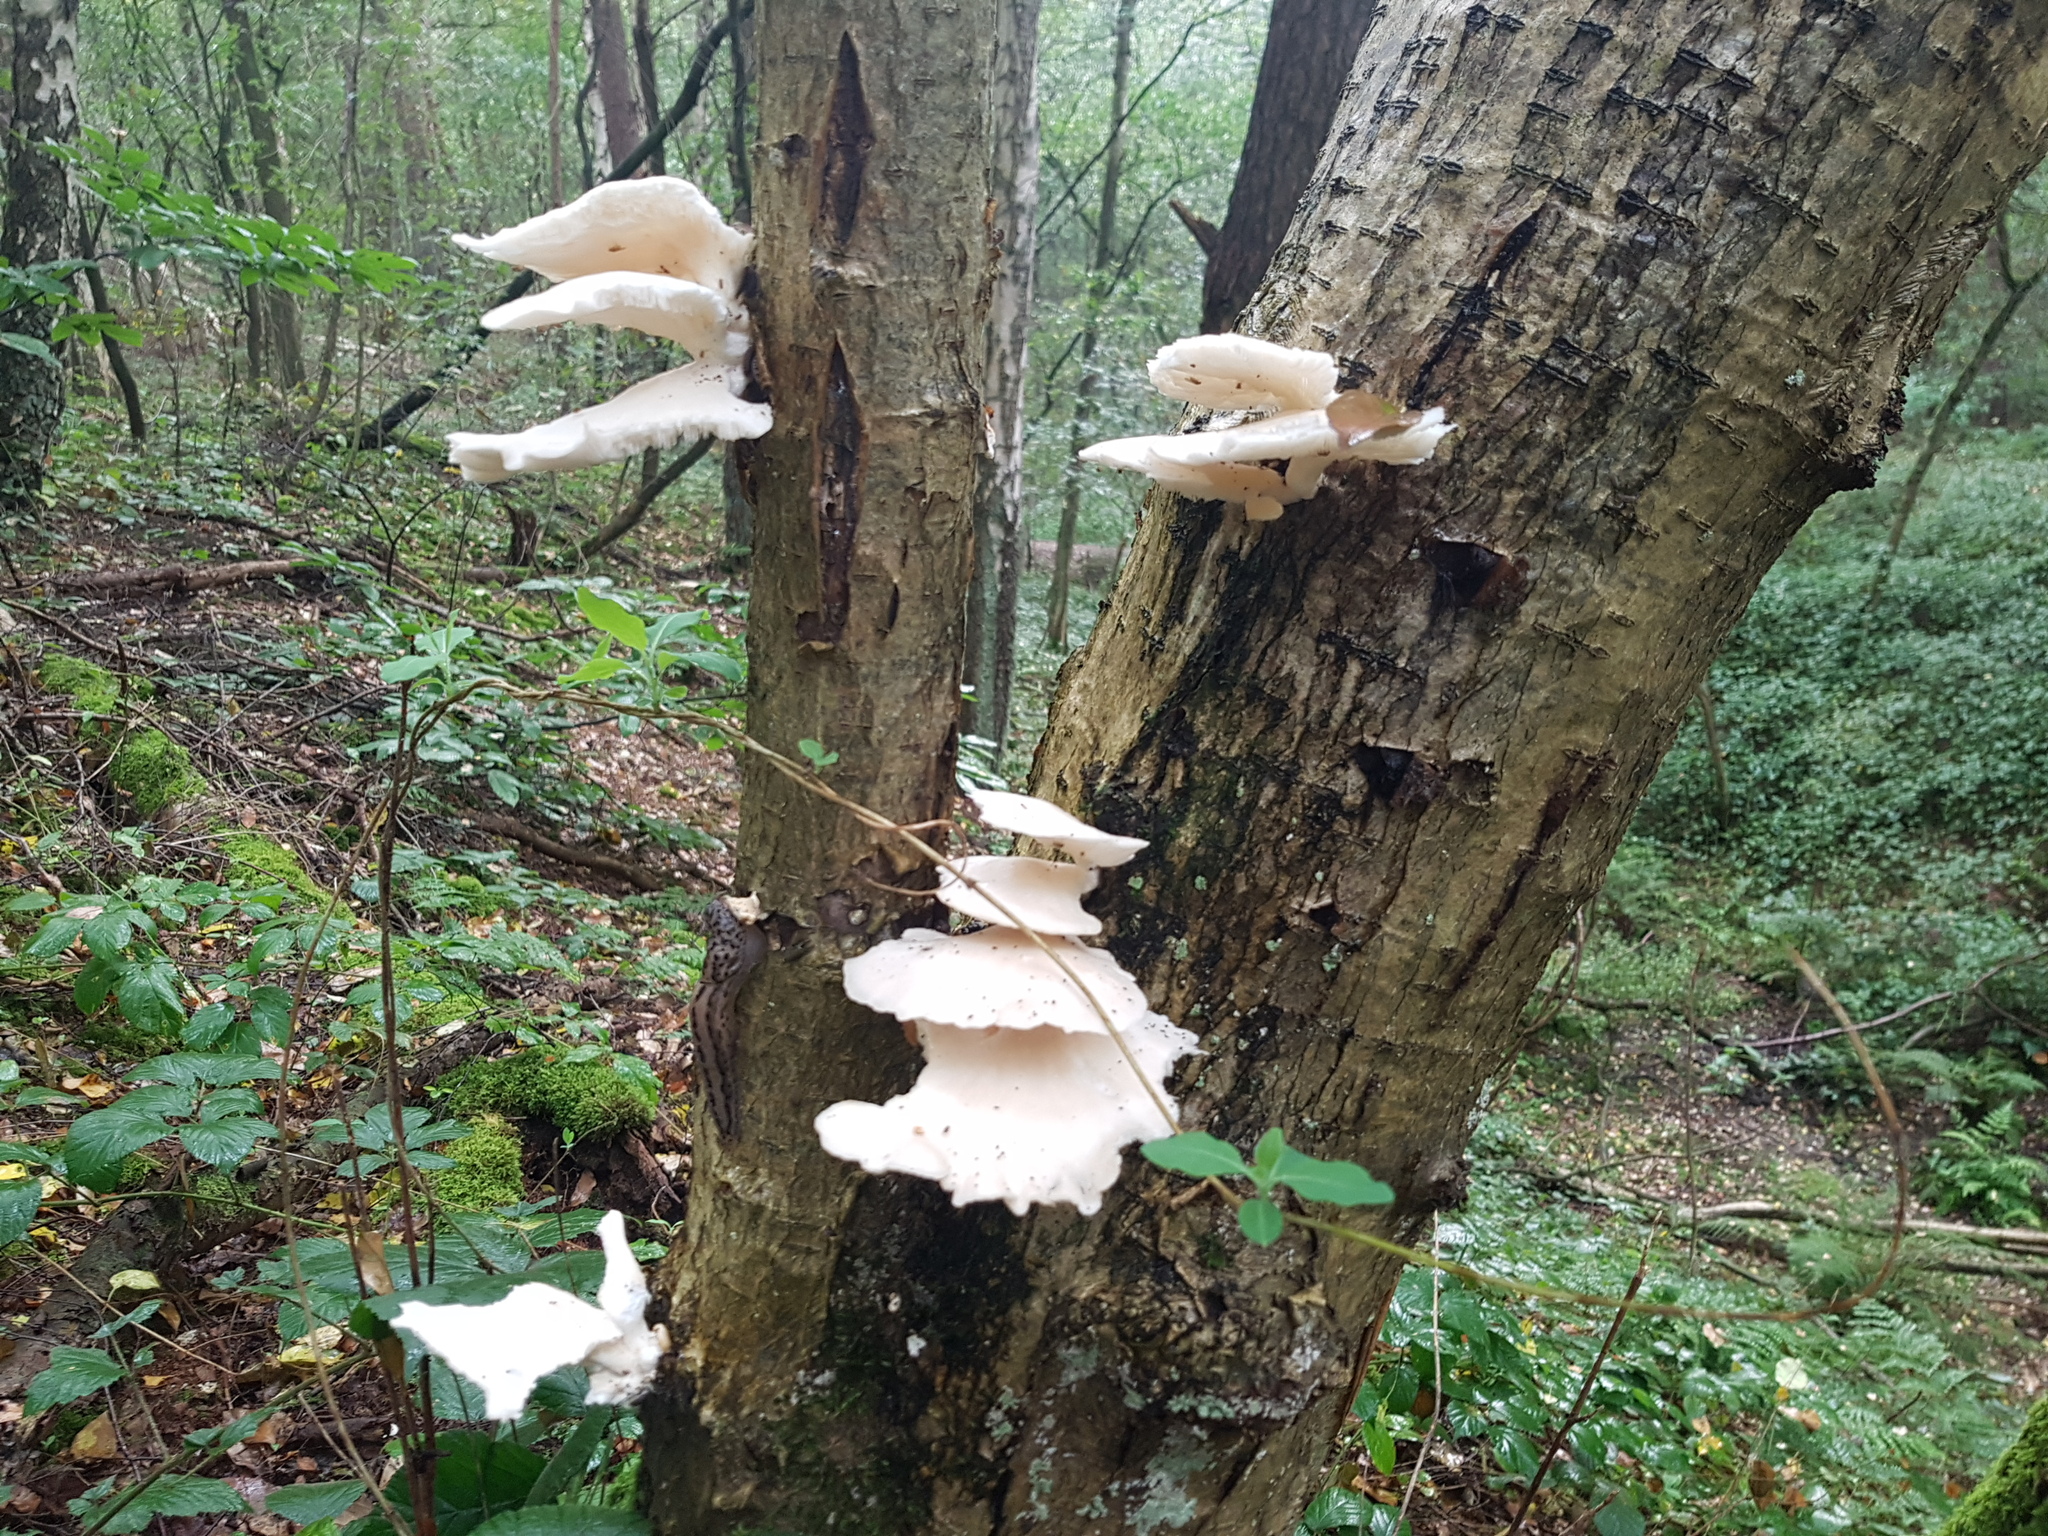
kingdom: Fungi
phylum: Basidiomycota
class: Agaricomycetes
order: Agaricales
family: Pleurotaceae
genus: Pleurotus
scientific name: Pleurotus pulmonarius
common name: Pale oyster
